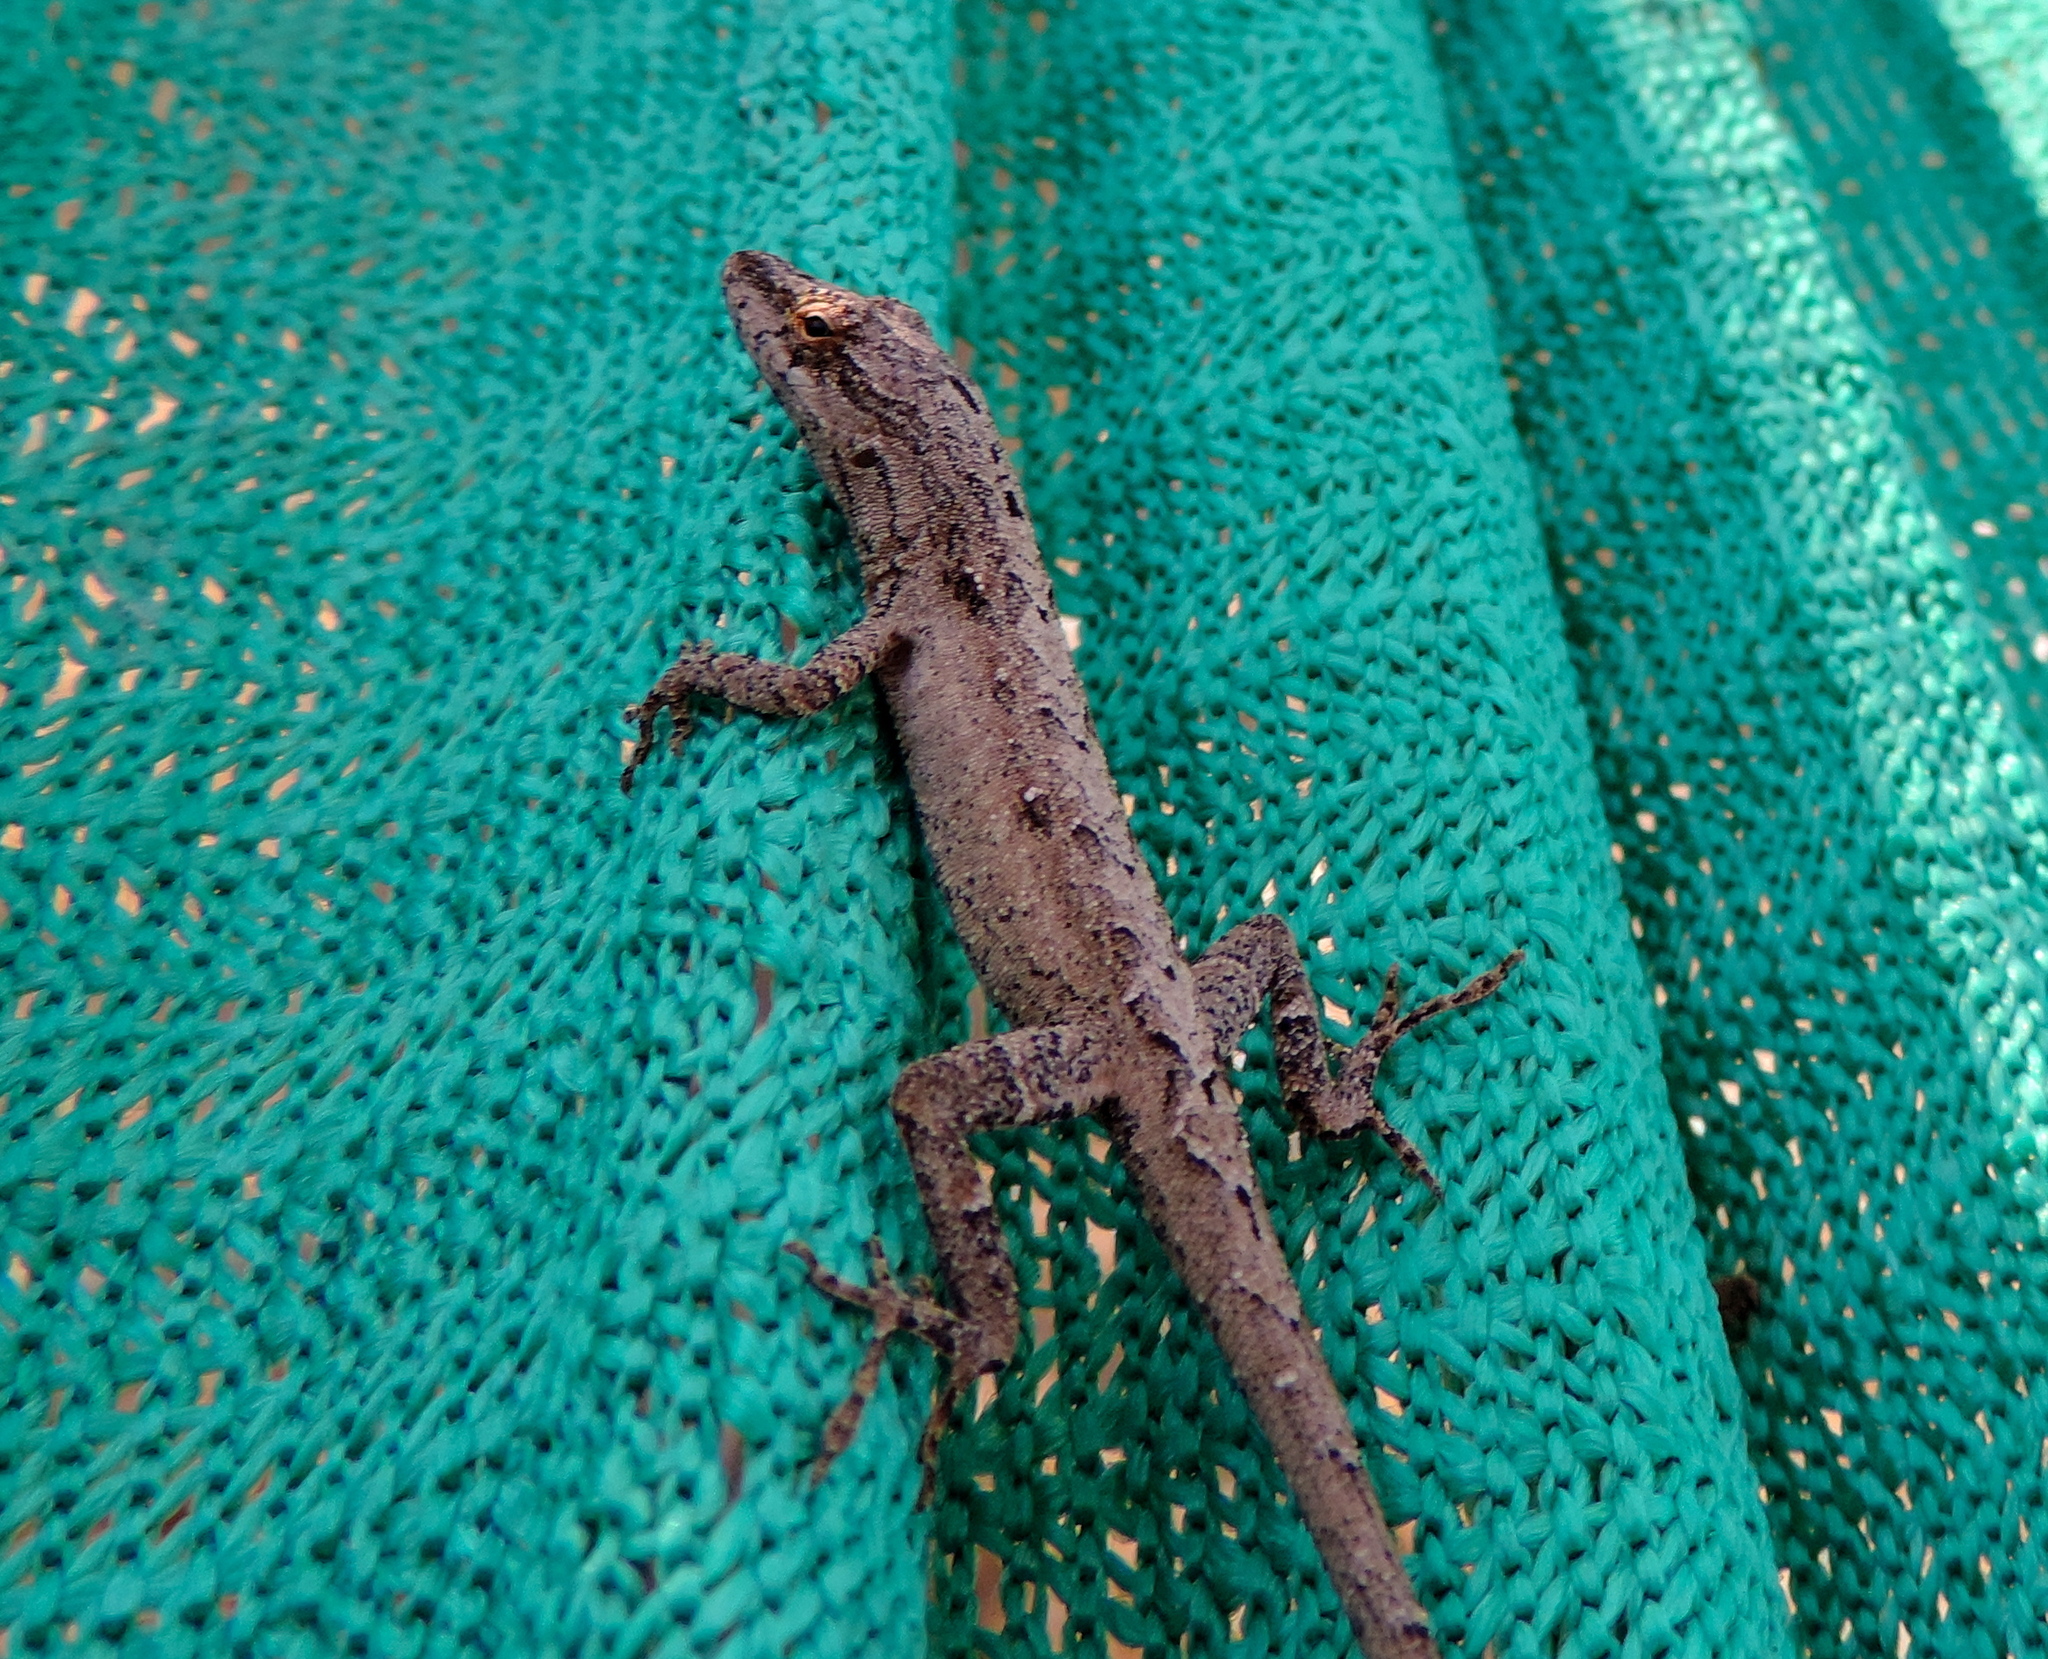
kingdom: Animalia
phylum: Chordata
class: Squamata
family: Dactyloidae
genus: Anolis
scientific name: Anolis nebulosus
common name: Clouded anole
